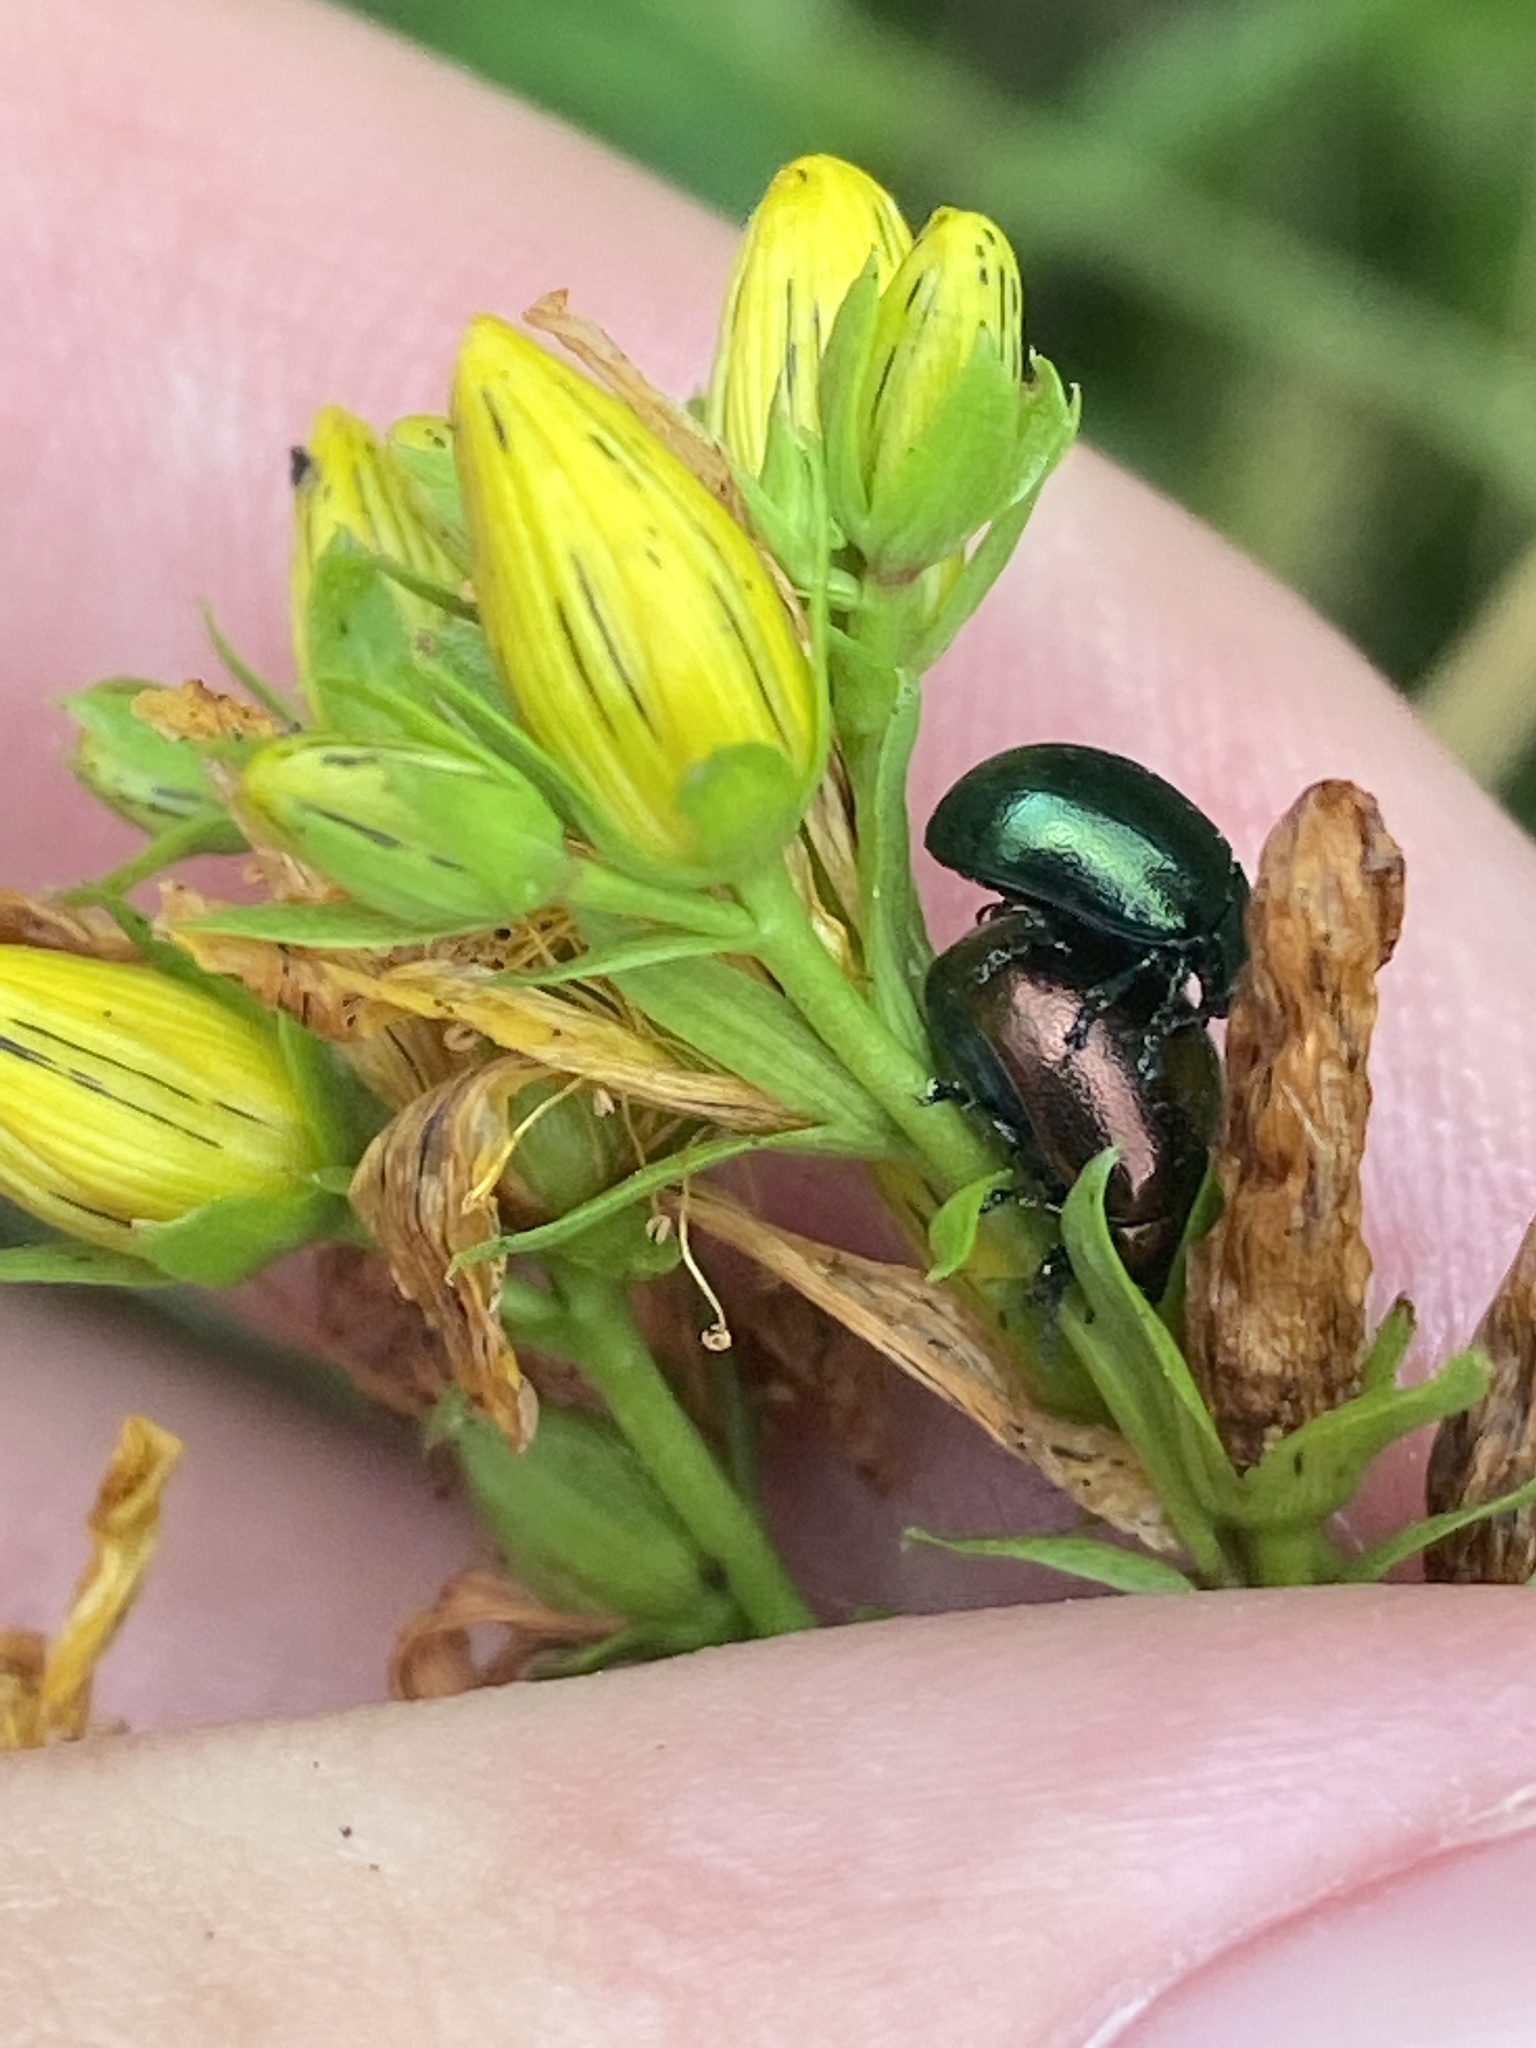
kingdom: Animalia
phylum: Arthropoda
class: Insecta
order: Coleoptera
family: Chrysomelidae
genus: Chrysolina
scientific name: Chrysolina varians
